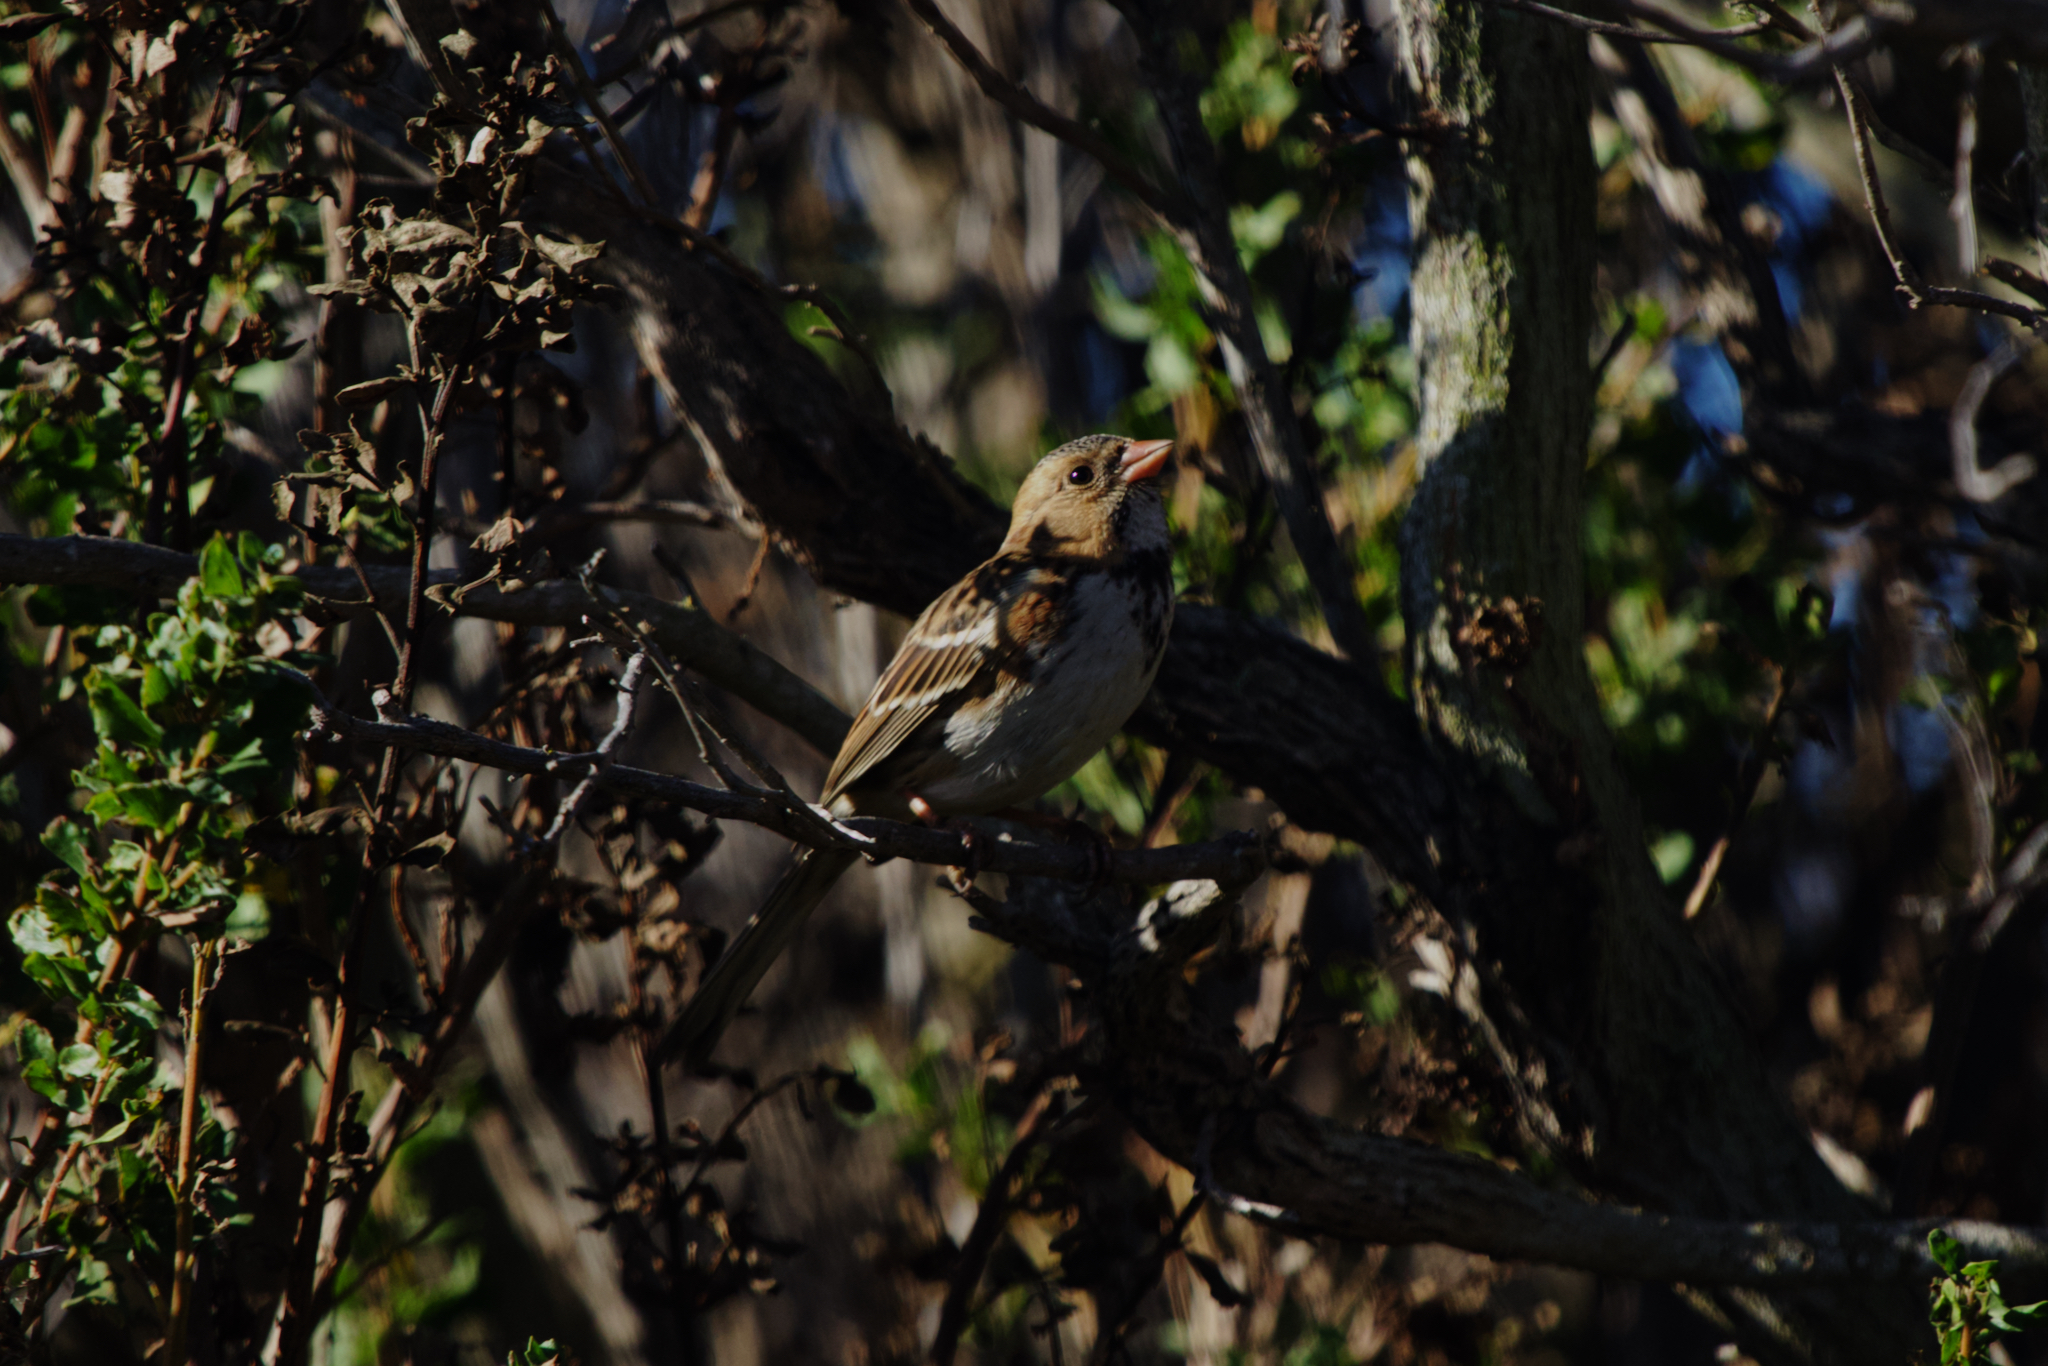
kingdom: Animalia
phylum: Chordata
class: Aves
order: Passeriformes
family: Passerellidae
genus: Zonotrichia
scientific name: Zonotrichia querula
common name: Harris's sparrow
